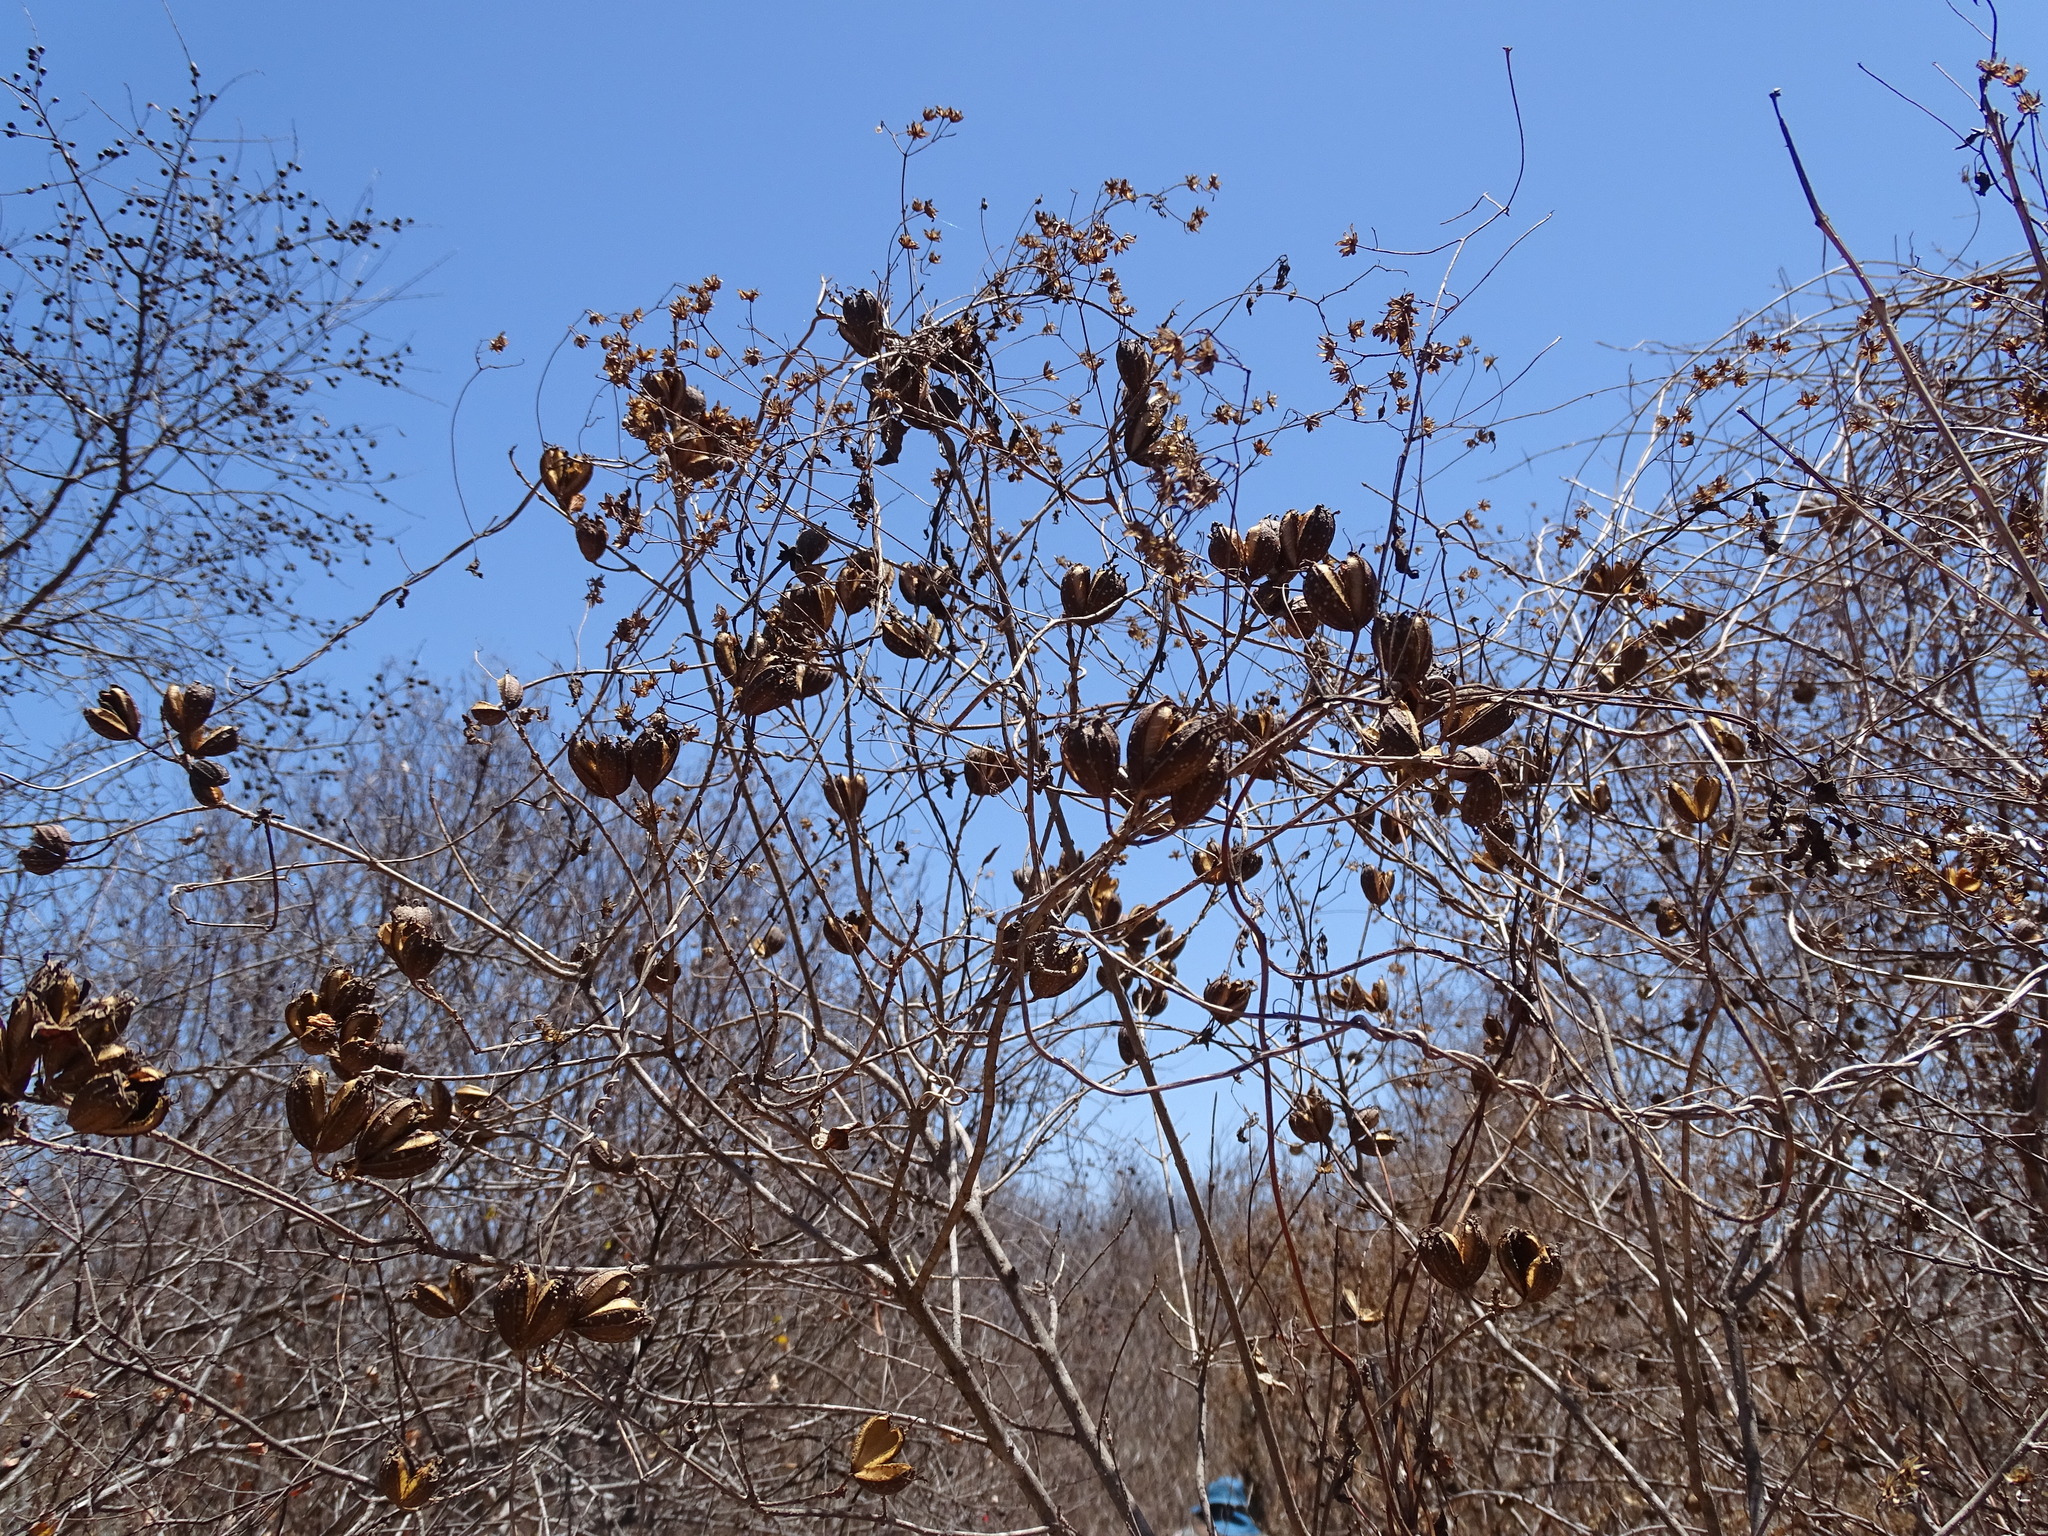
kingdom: Plantae
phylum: Tracheophyta
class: Magnoliopsida
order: Gentianales
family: Rubiaceae
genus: Hintonia
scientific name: Hintonia latiflora
